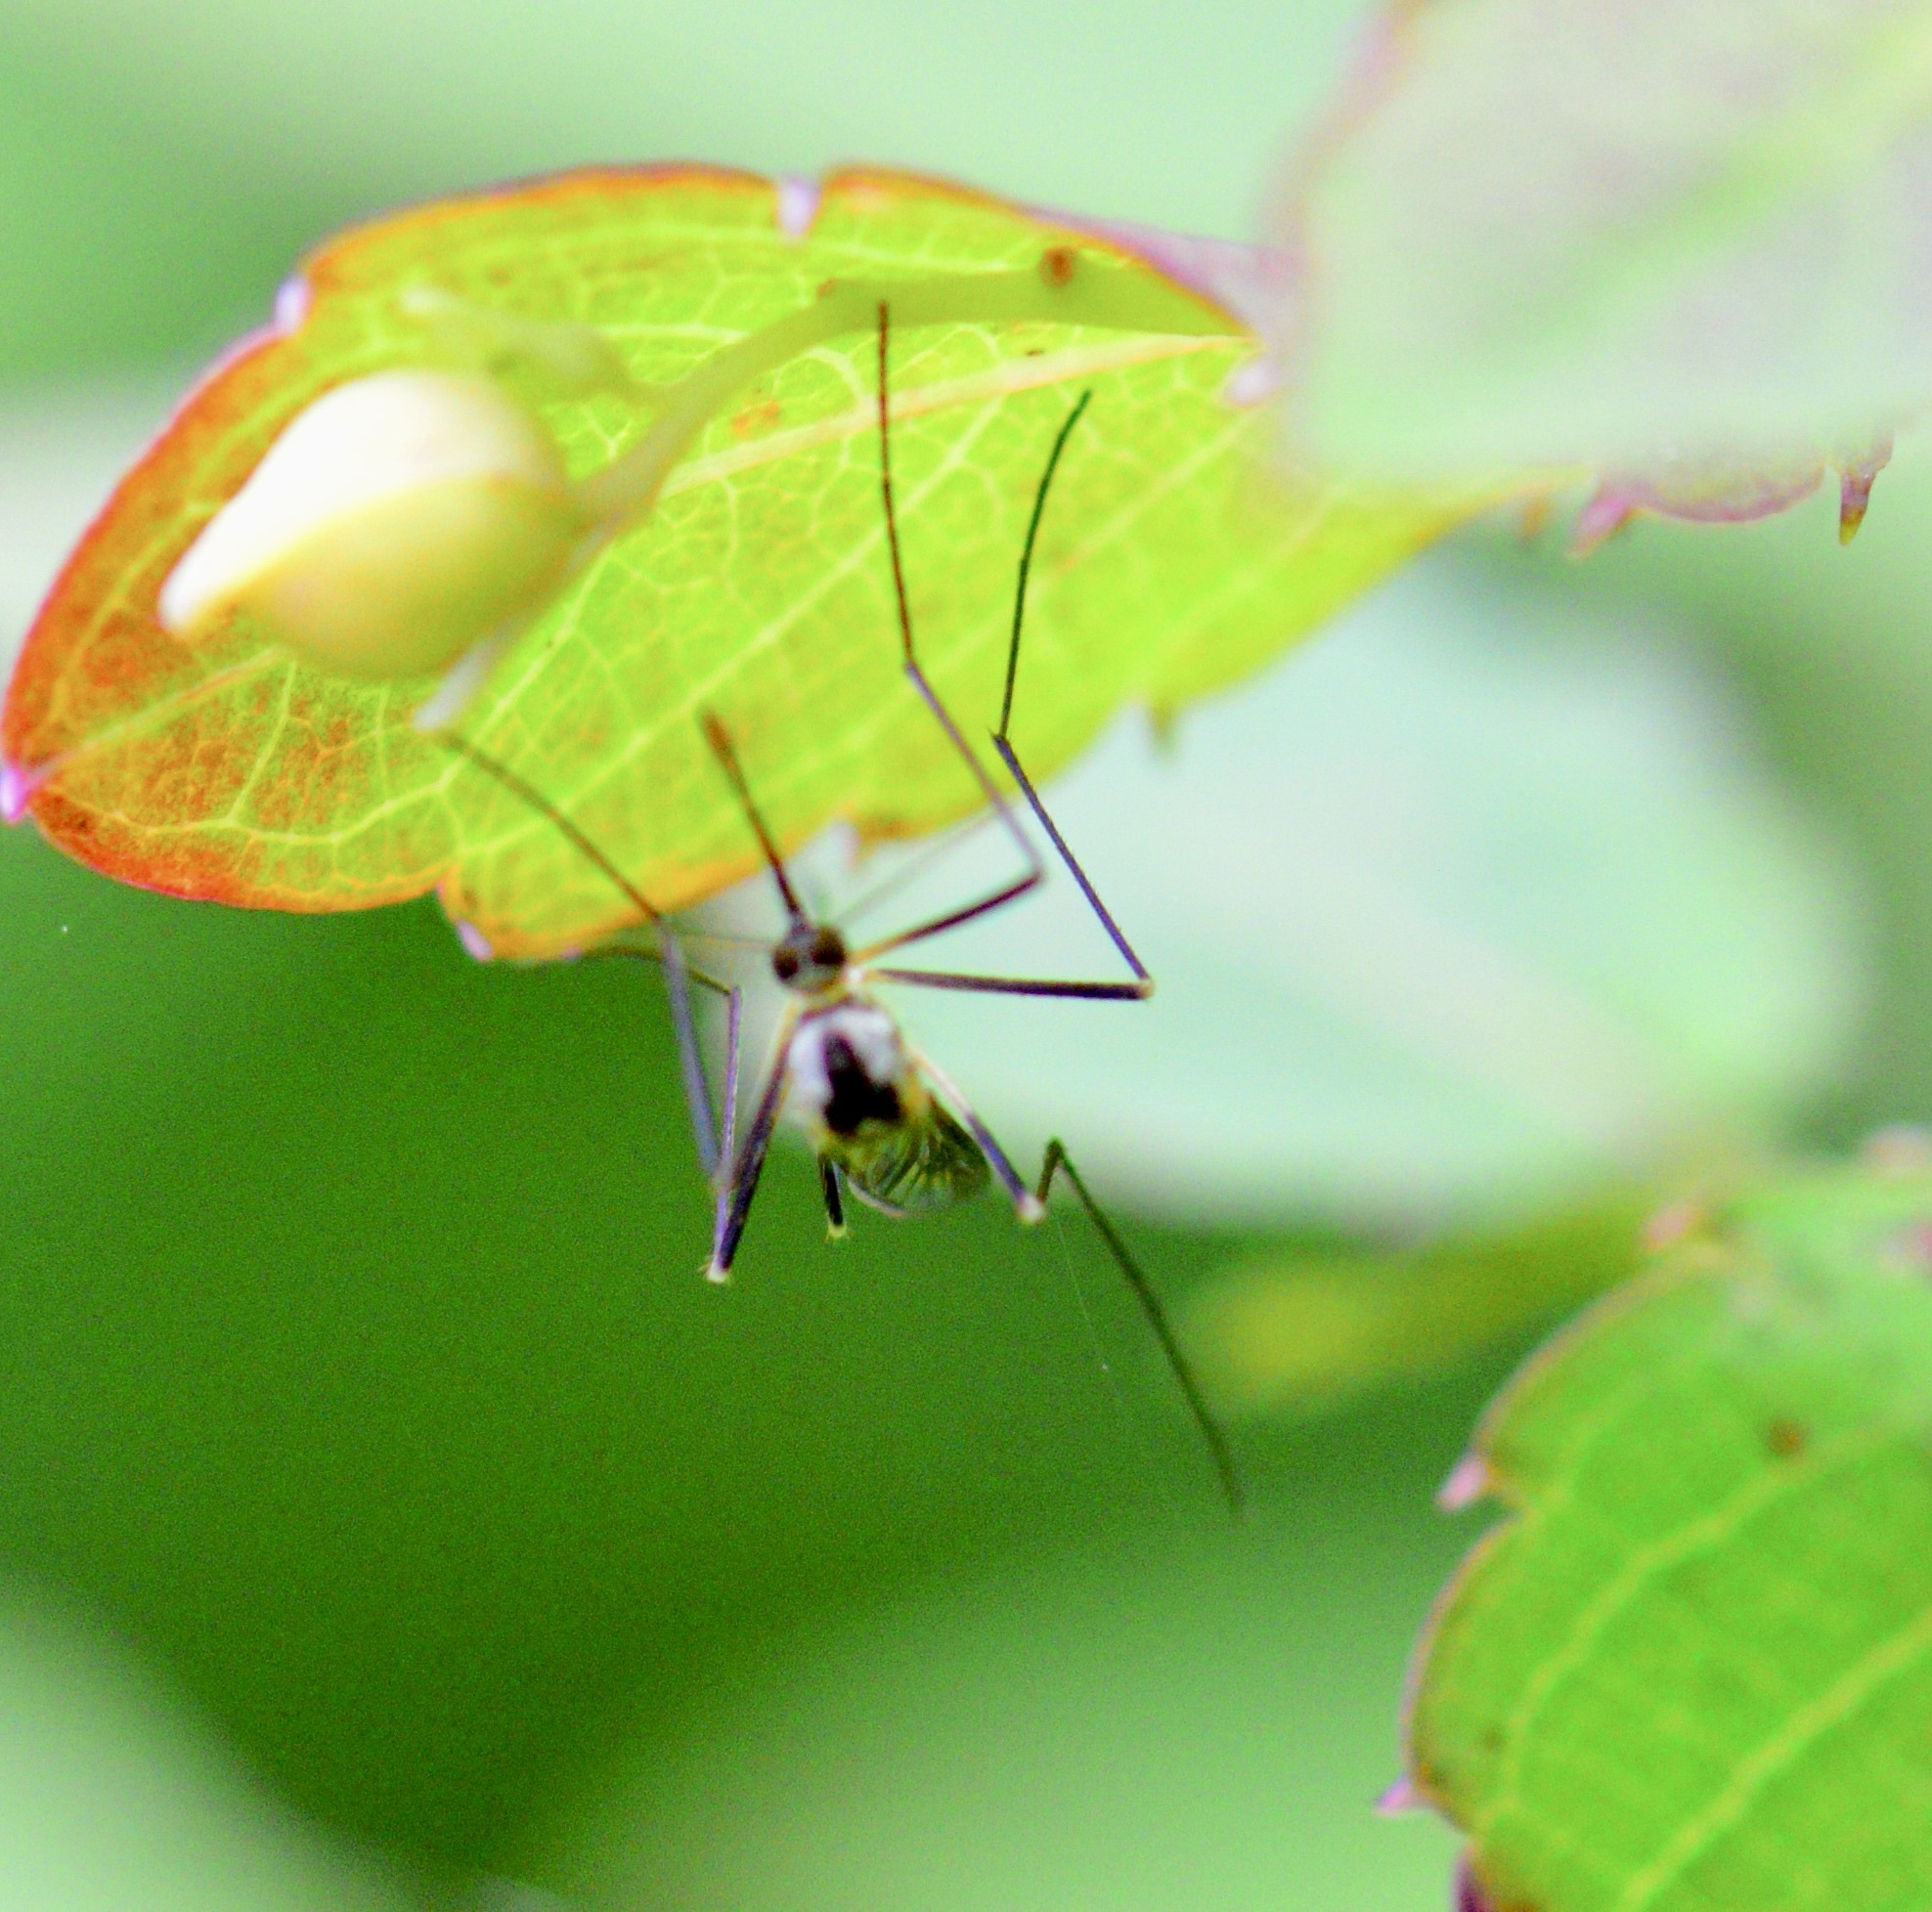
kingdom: Animalia
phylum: Arthropoda
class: Insecta
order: Diptera
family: Culicidae
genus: Aedes
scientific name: Aedes hendersoni
